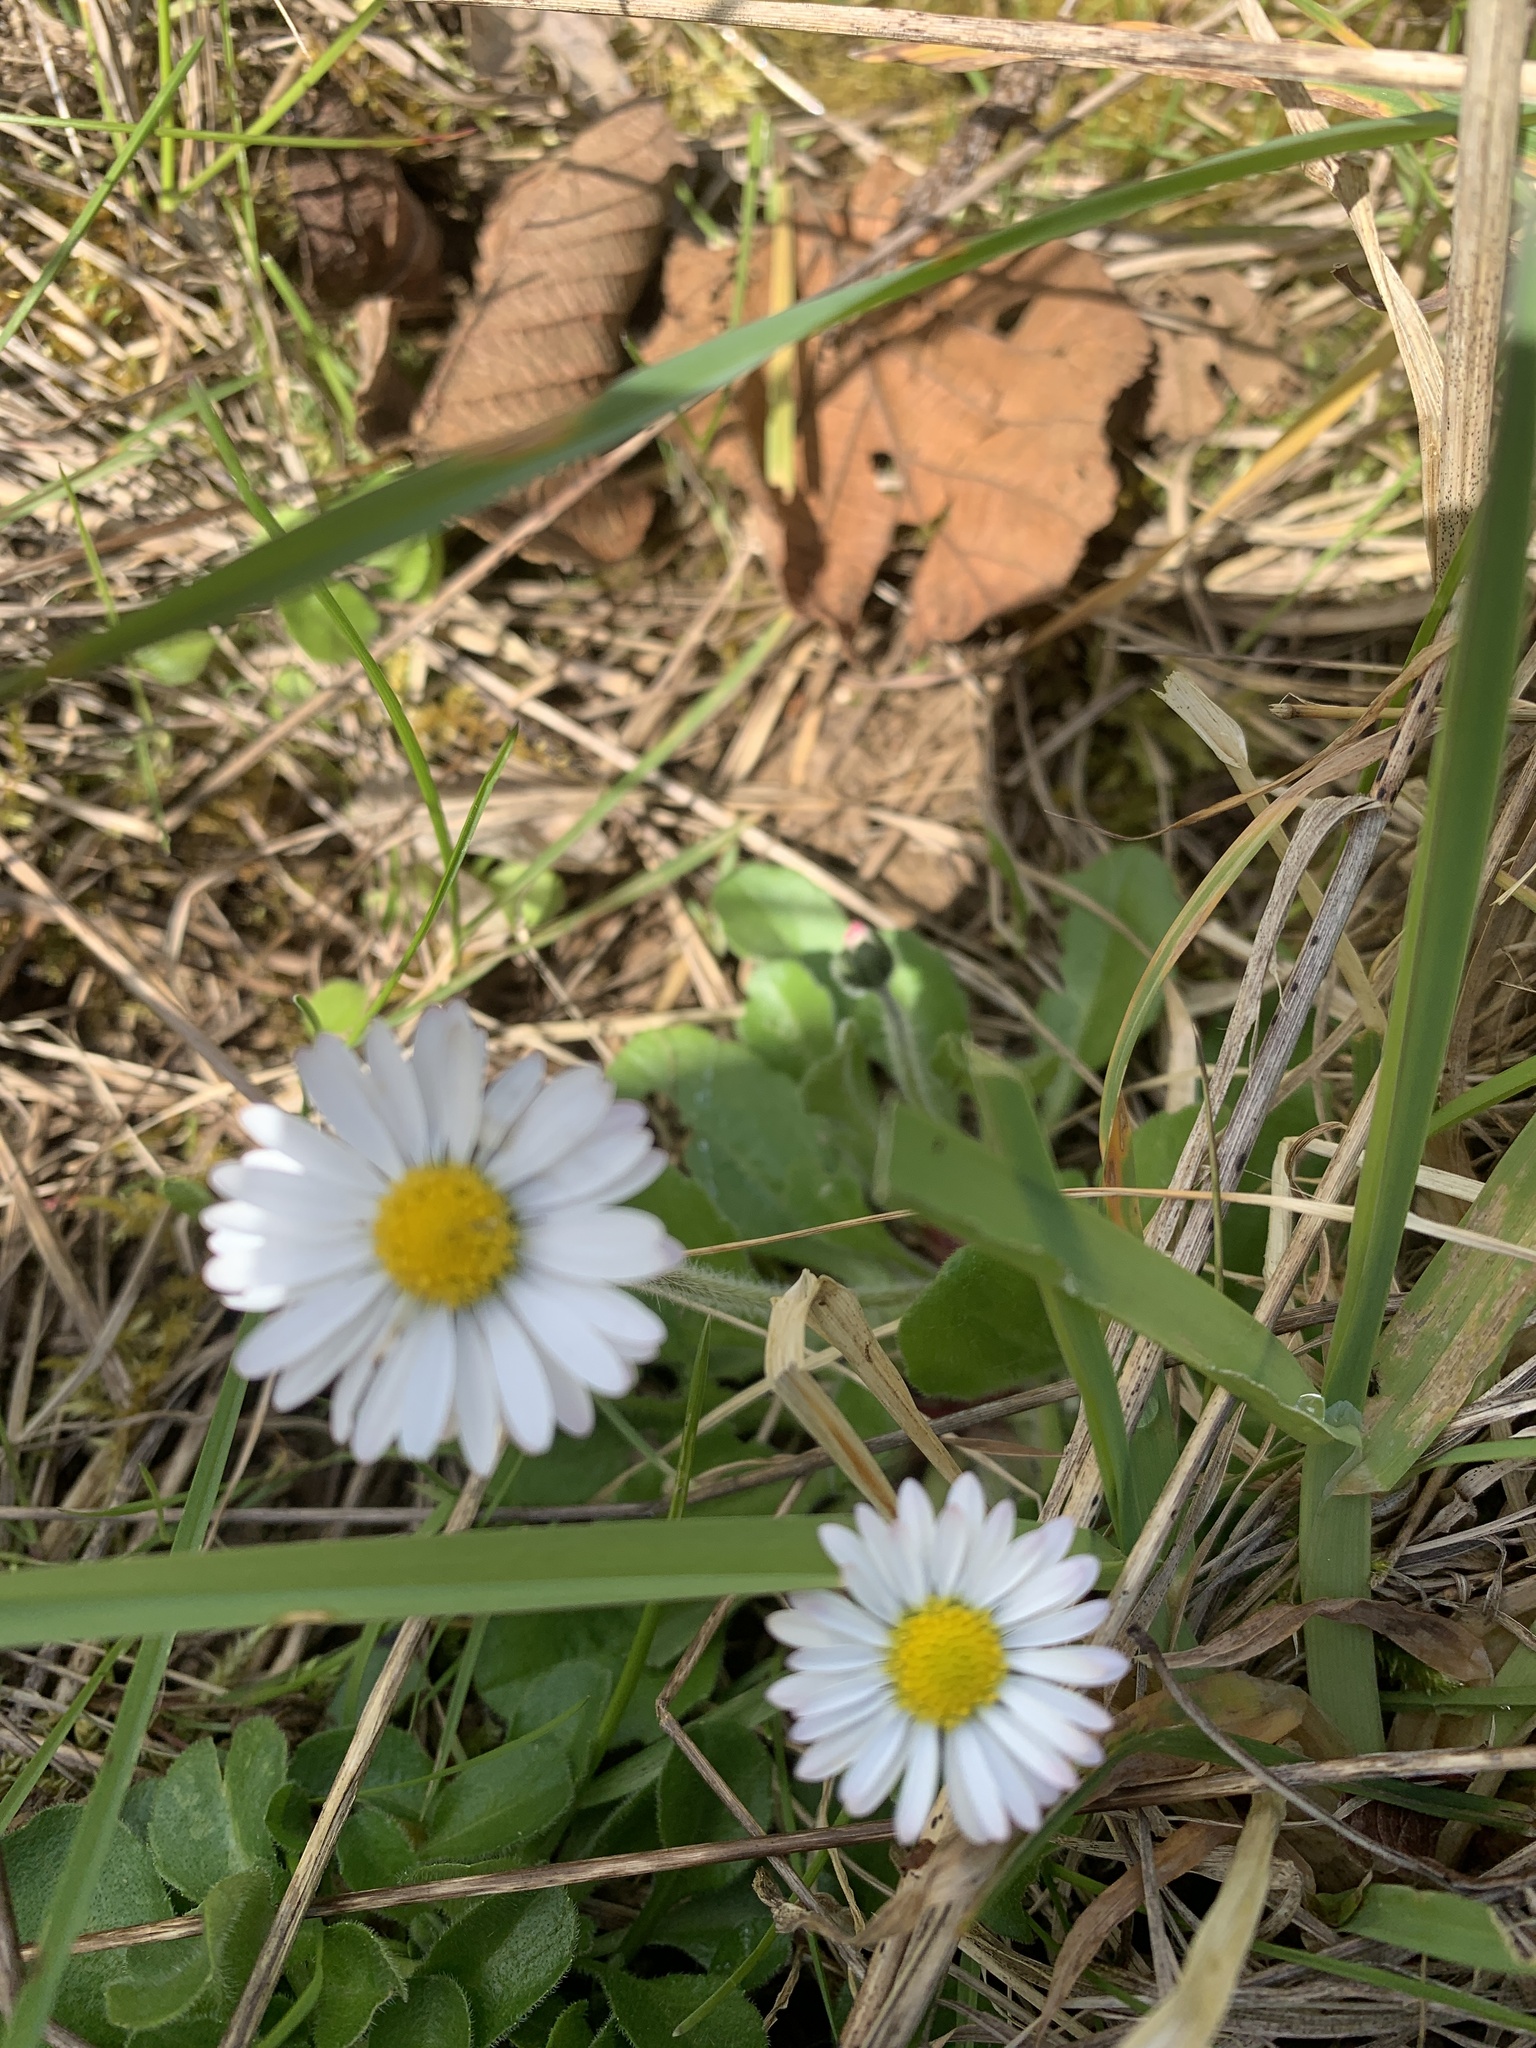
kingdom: Plantae
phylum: Tracheophyta
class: Magnoliopsida
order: Asterales
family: Asteraceae
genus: Bellis
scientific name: Bellis perennis
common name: Lawndaisy
